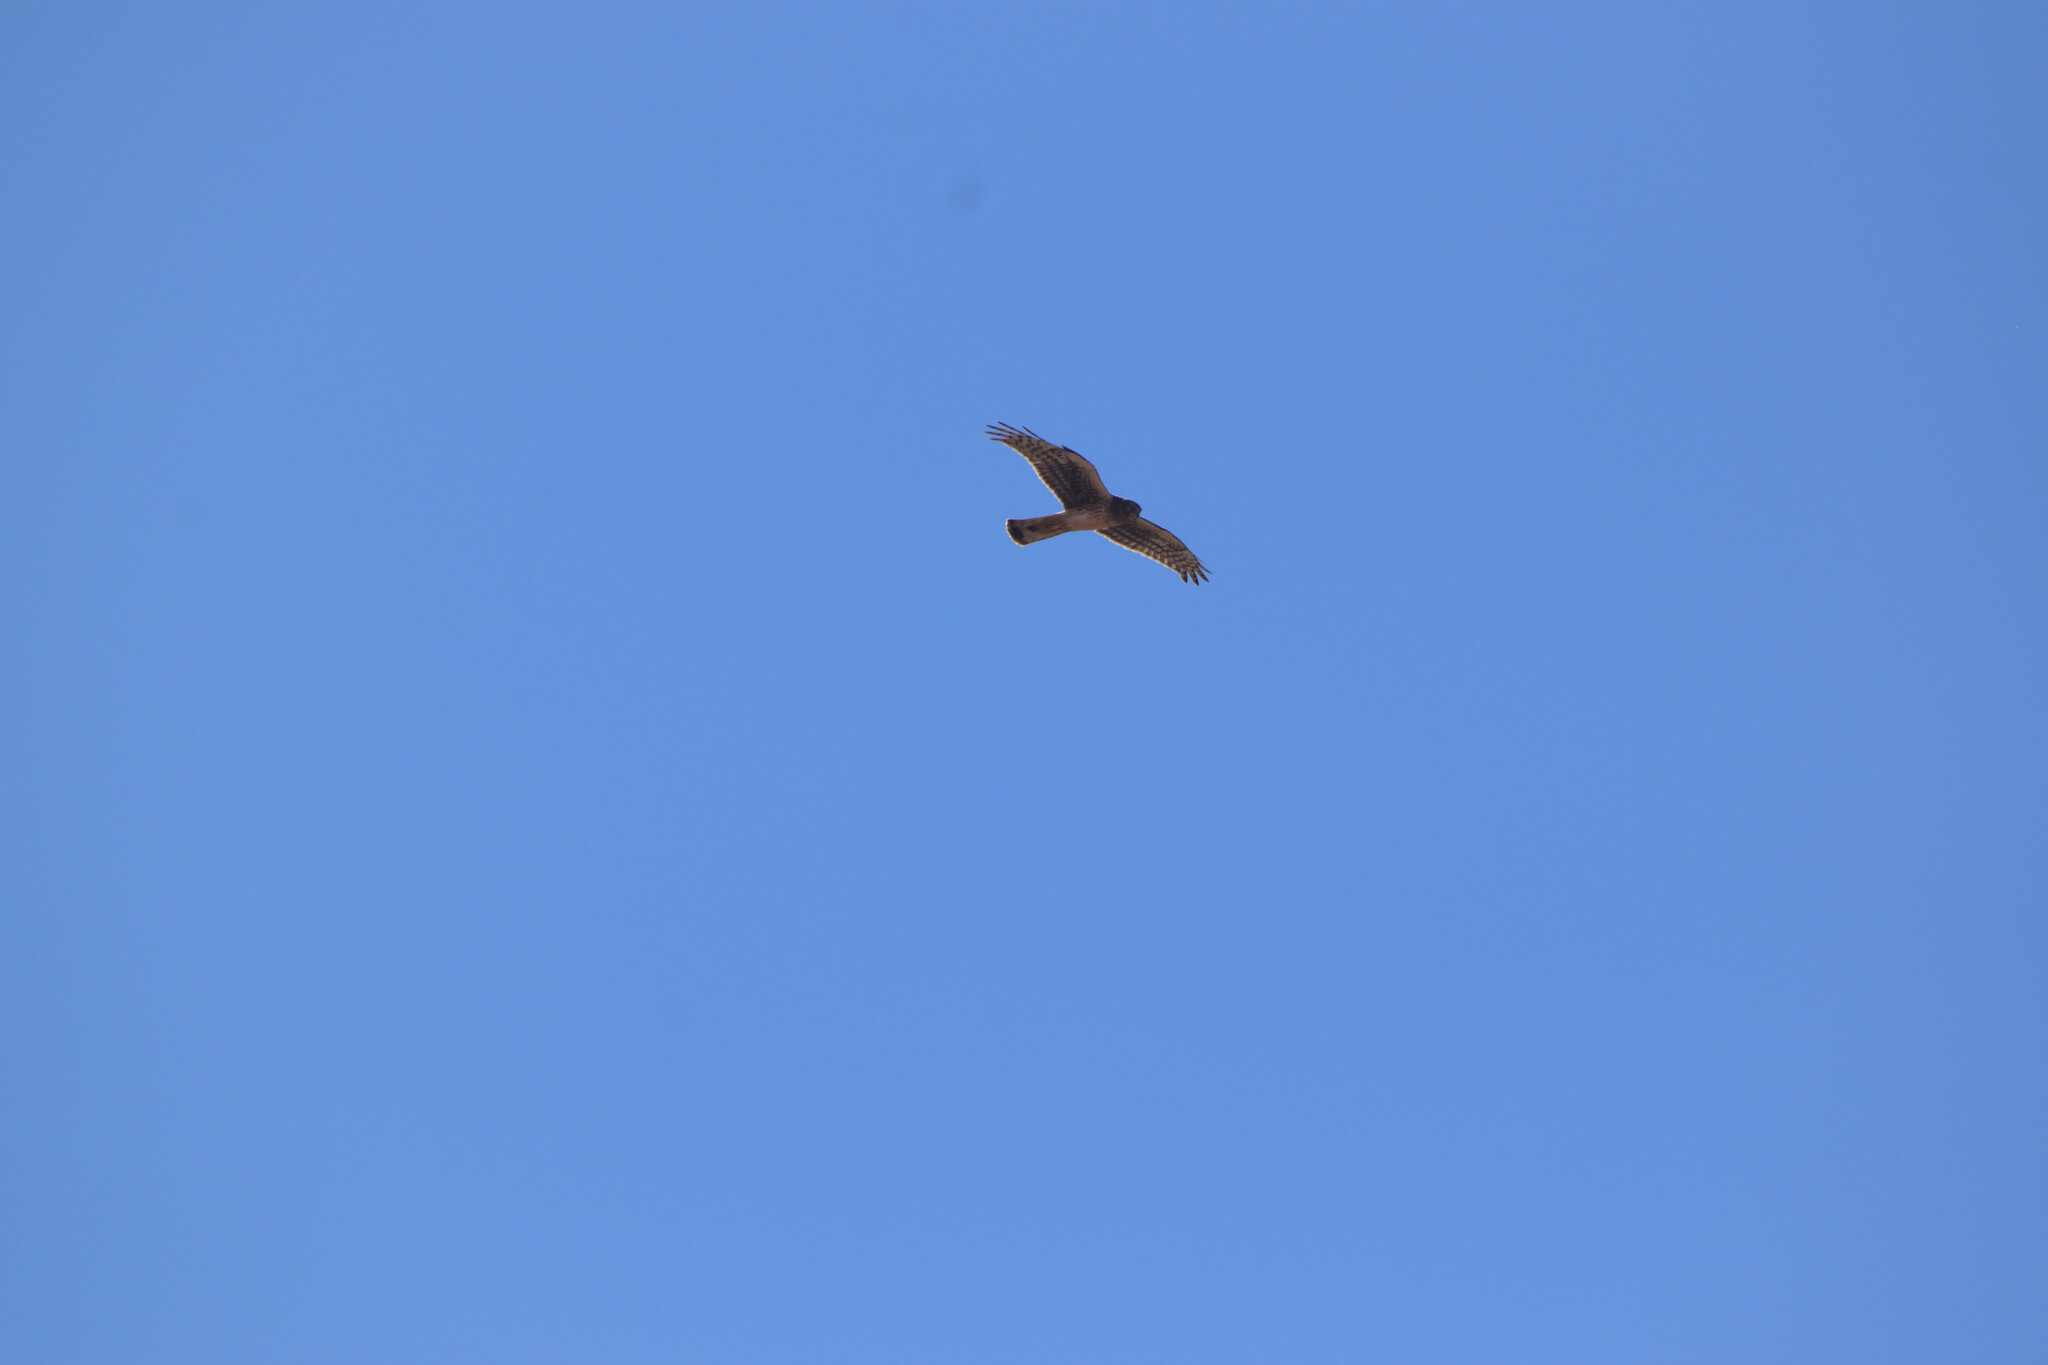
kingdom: Animalia
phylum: Chordata
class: Aves
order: Accipitriformes
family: Accipitridae
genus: Circus
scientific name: Circus cyaneus
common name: Hen harrier
